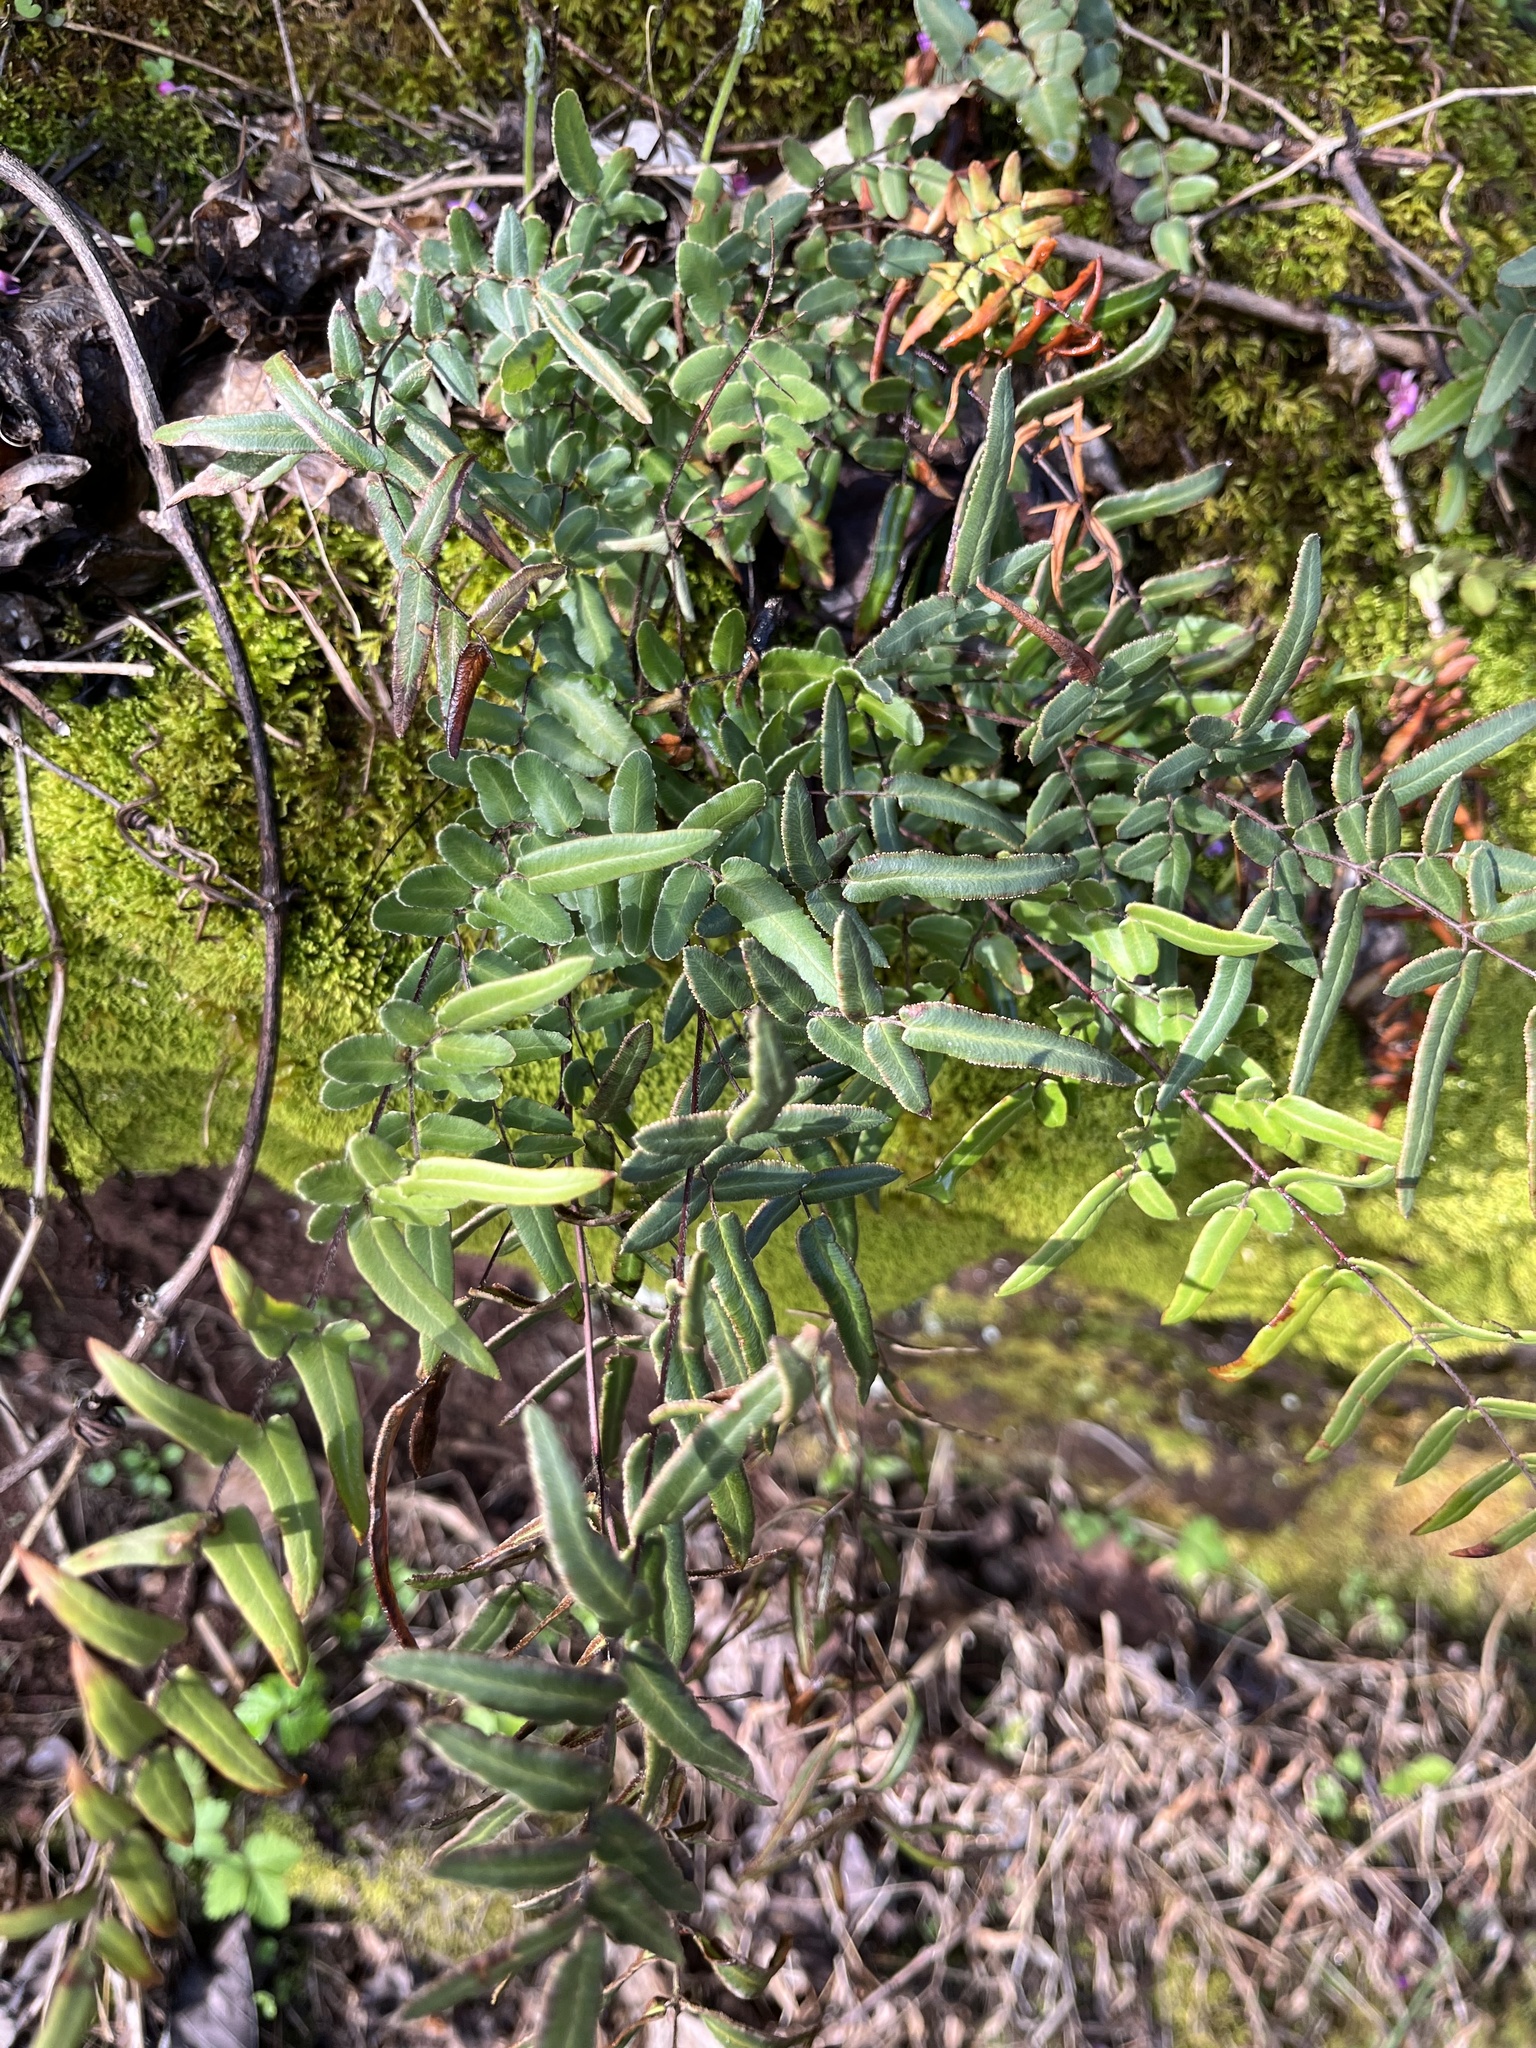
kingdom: Plantae
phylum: Tracheophyta
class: Polypodiopsida
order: Polypodiales
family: Pteridaceae
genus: Pellaea
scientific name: Pellaea atropurpurea
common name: Hairy cliffbrake
